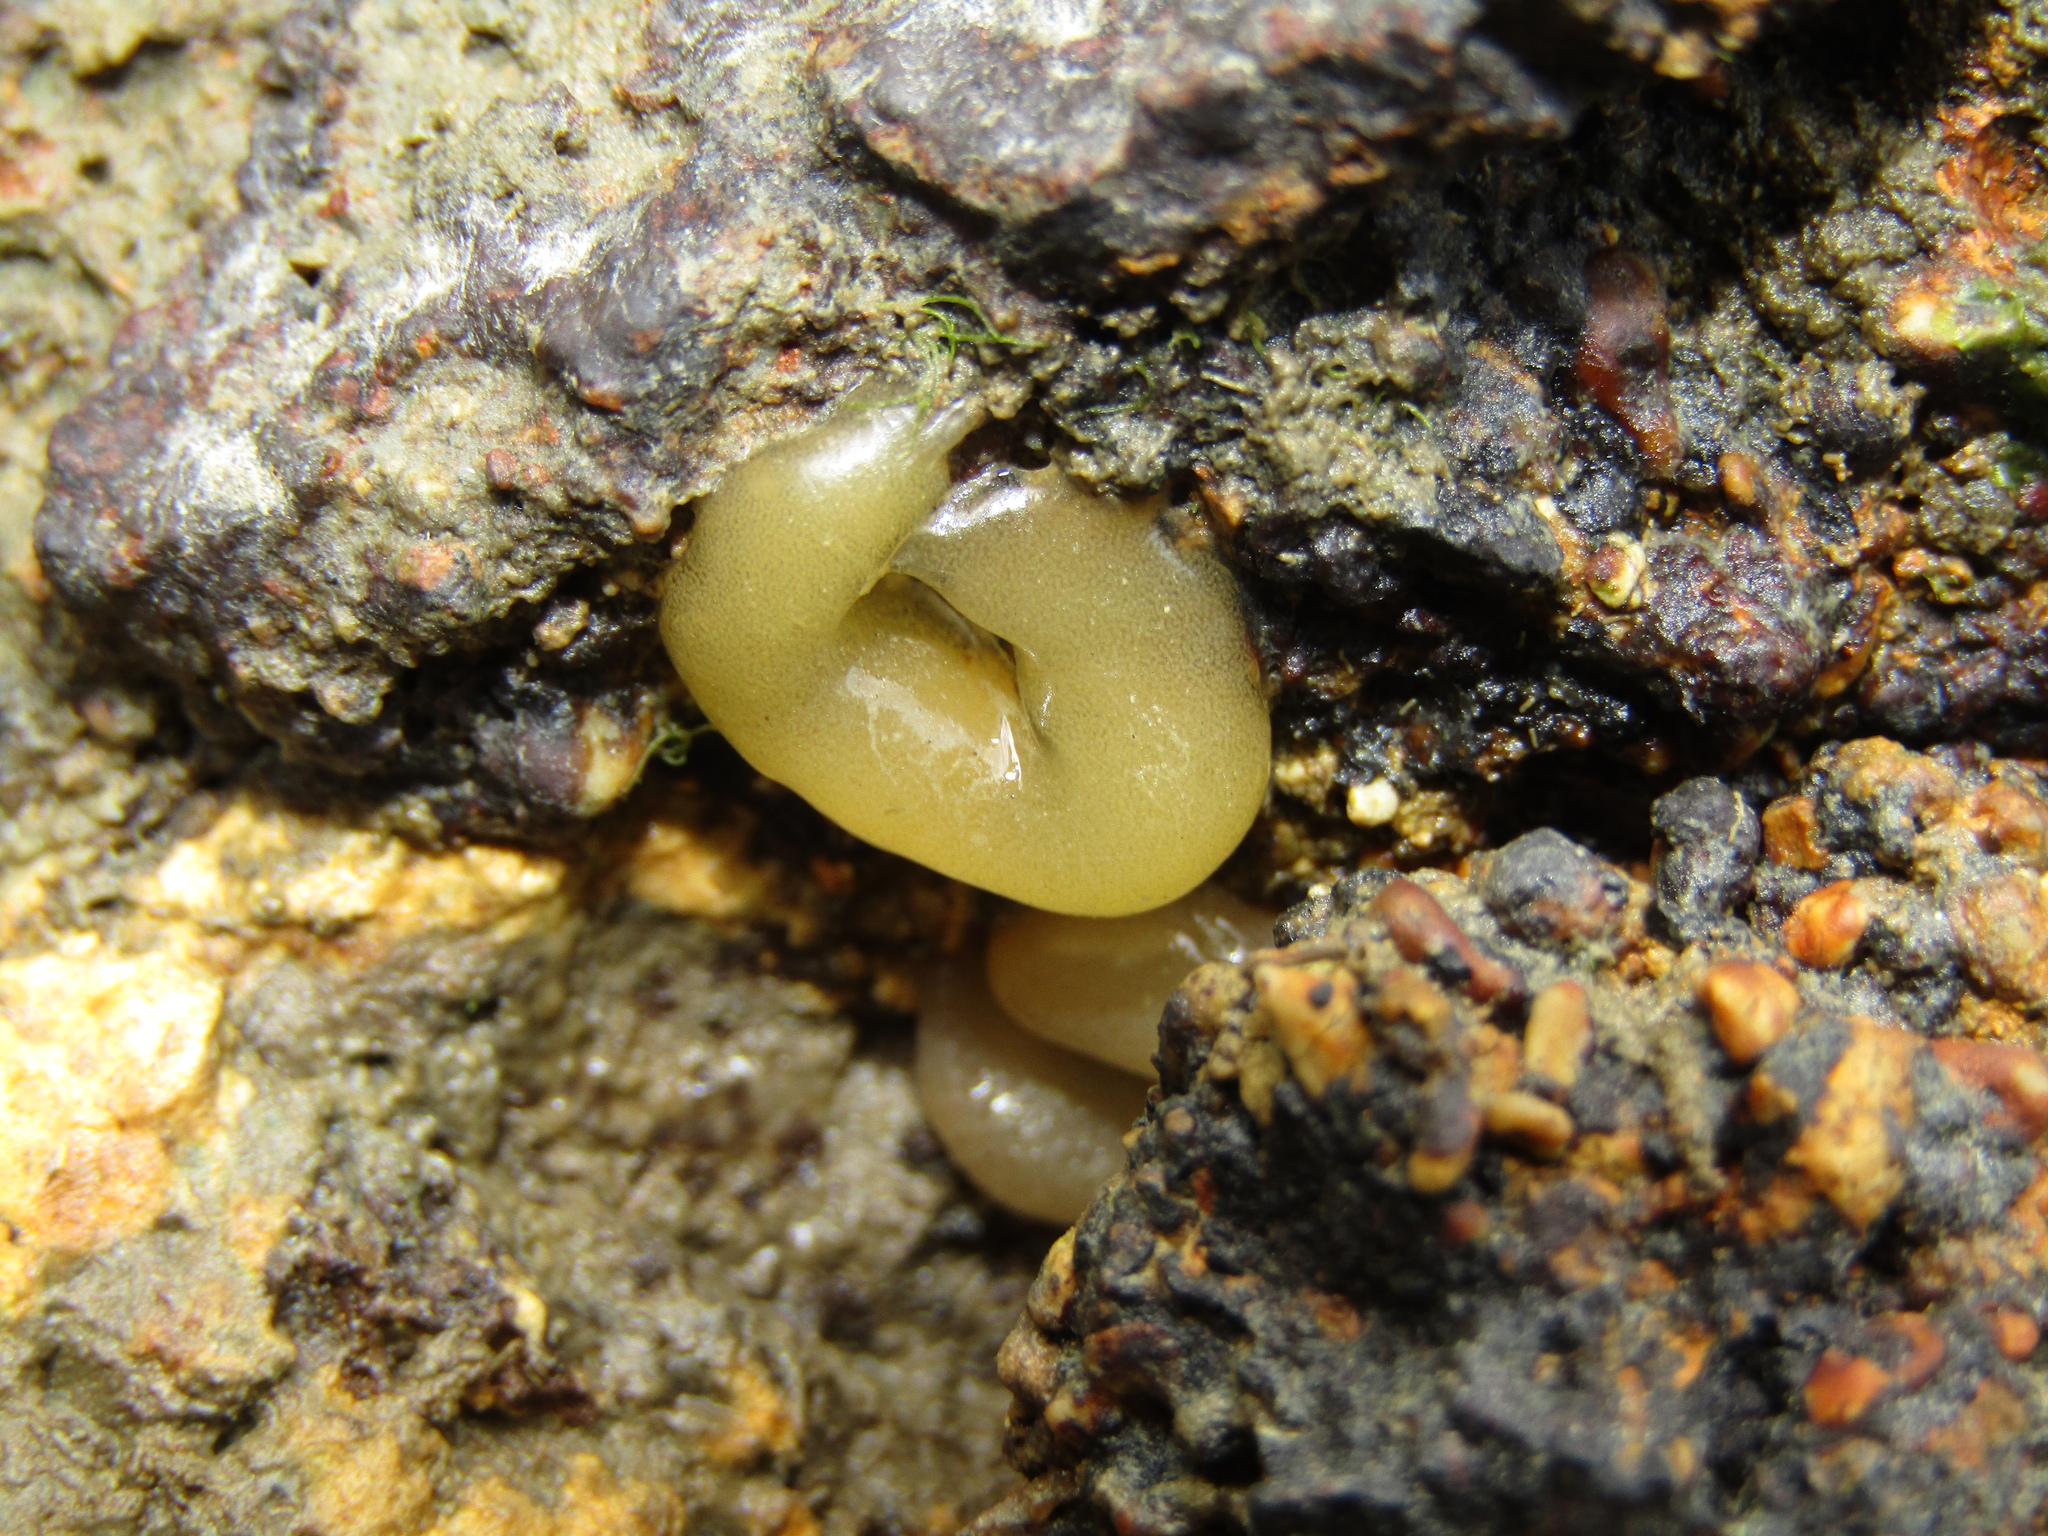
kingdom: Animalia
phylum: Mollusca
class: Gastropoda
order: Siphonariida
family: Siphonariidae
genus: Siphonaria
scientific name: Siphonaria australis
